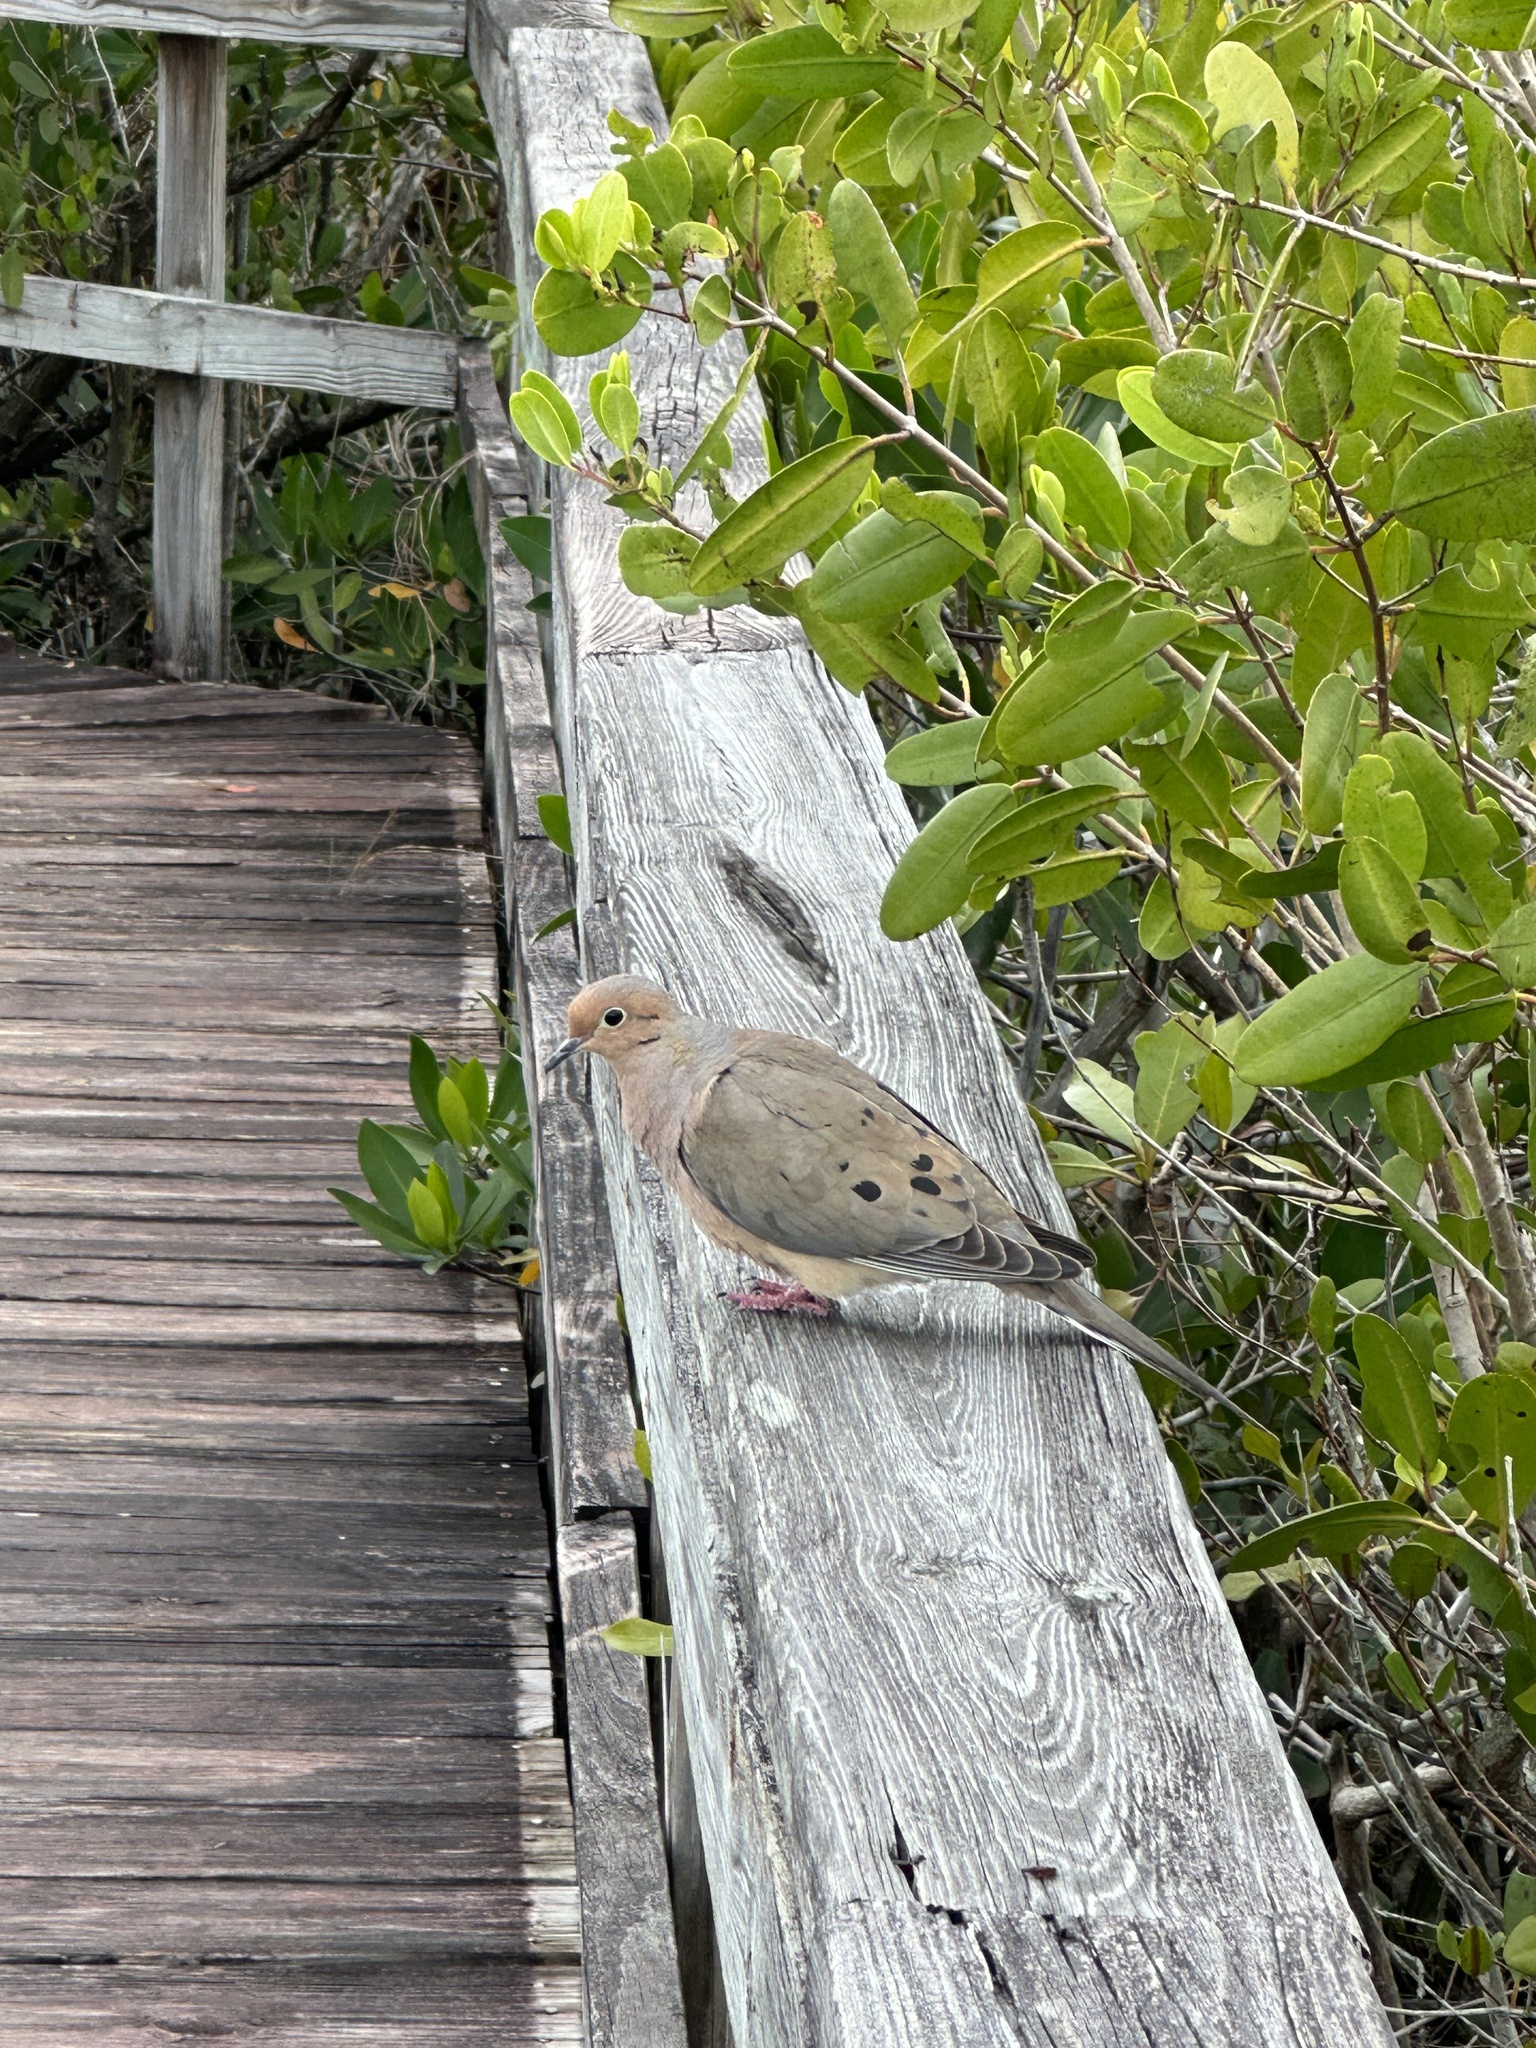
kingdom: Animalia
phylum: Chordata
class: Aves
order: Columbiformes
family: Columbidae
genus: Zenaida
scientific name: Zenaida macroura
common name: Mourning dove
